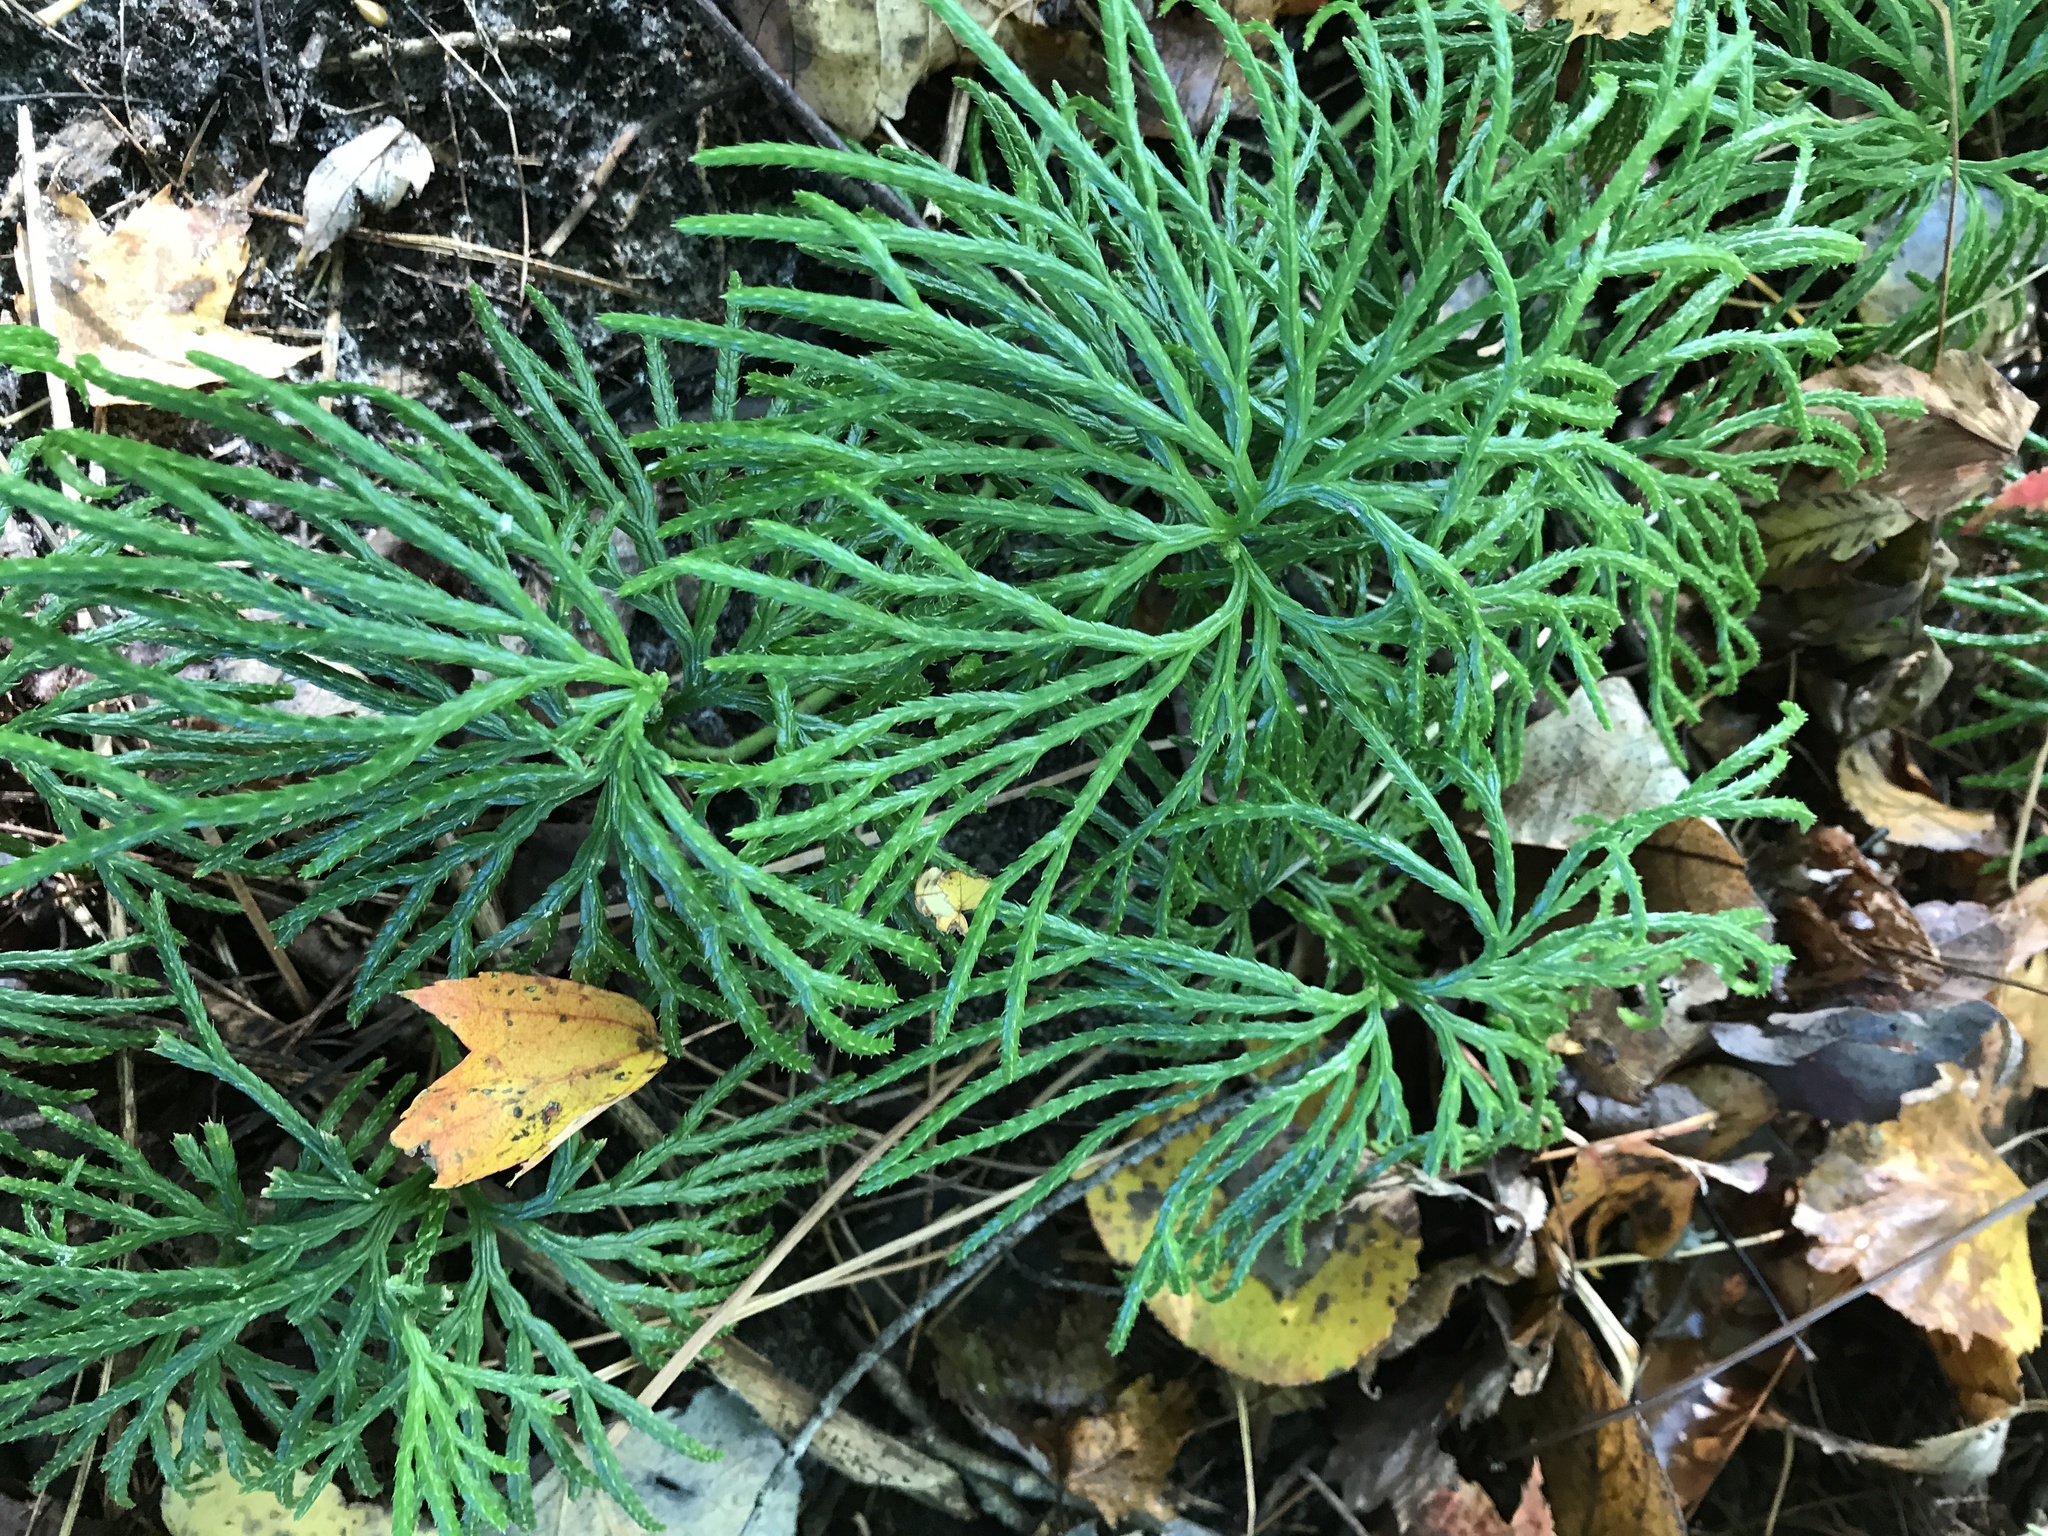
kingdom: Plantae
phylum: Tracheophyta
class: Lycopodiopsida
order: Lycopodiales
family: Lycopodiaceae
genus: Diphasiastrum
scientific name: Diphasiastrum digitatum
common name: Southern running-pine
